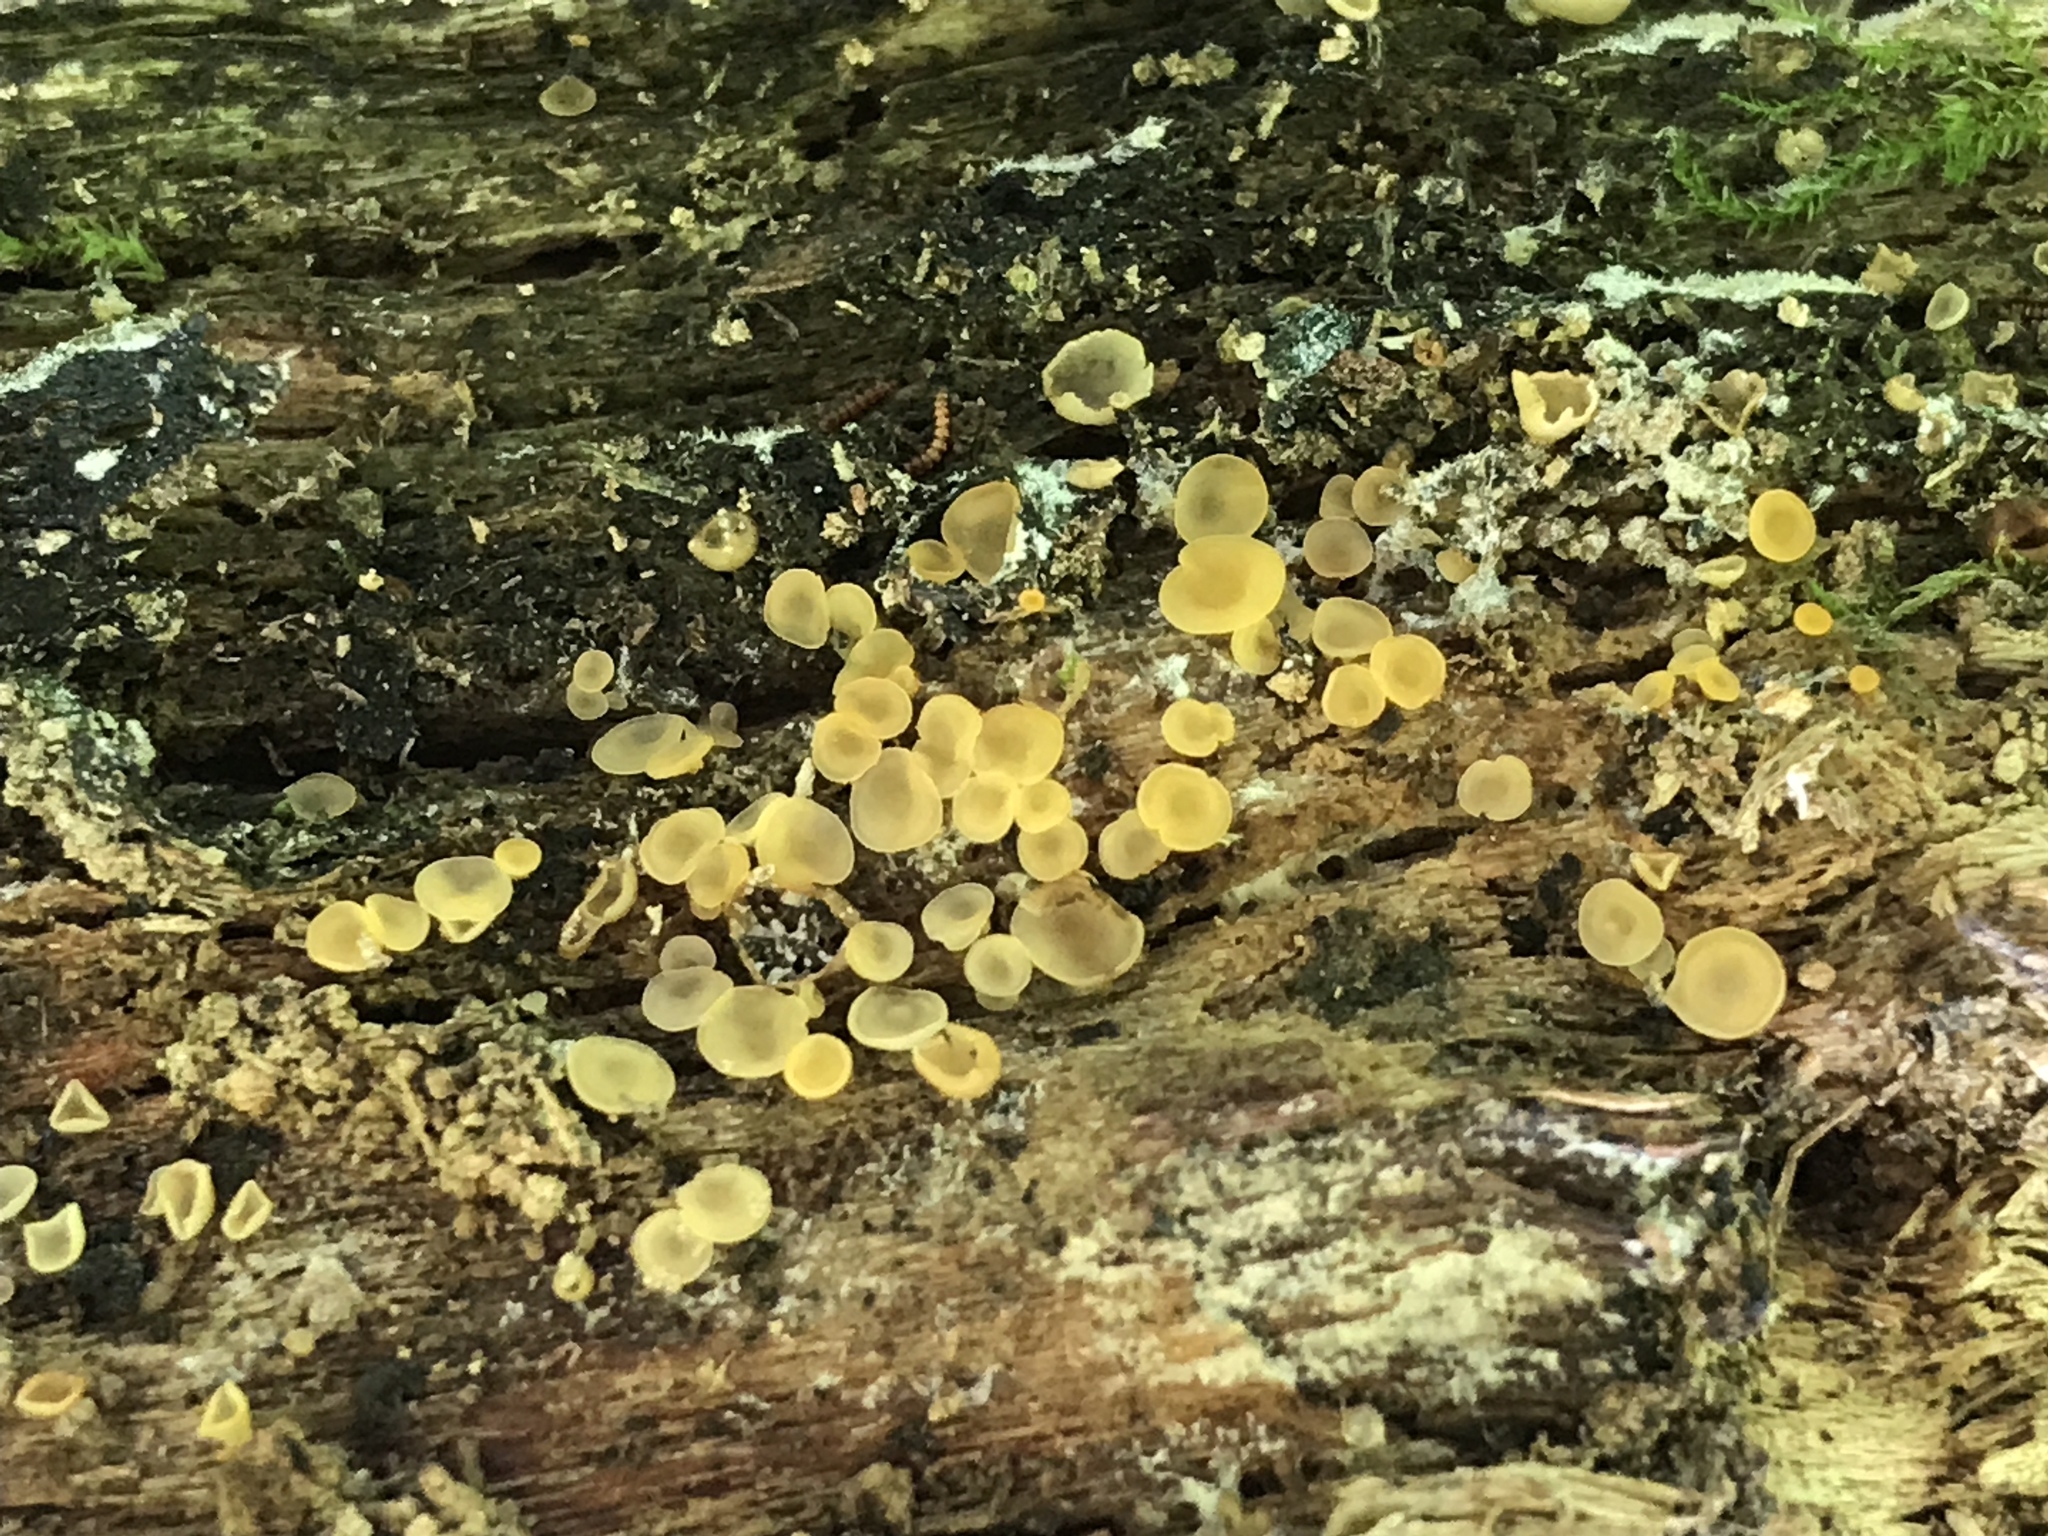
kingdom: Fungi
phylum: Ascomycota
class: Orbiliomycetes
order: Orbiliales
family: Orbiliaceae
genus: Orbilia
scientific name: Orbilia xanthostigma
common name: Common glasscup
